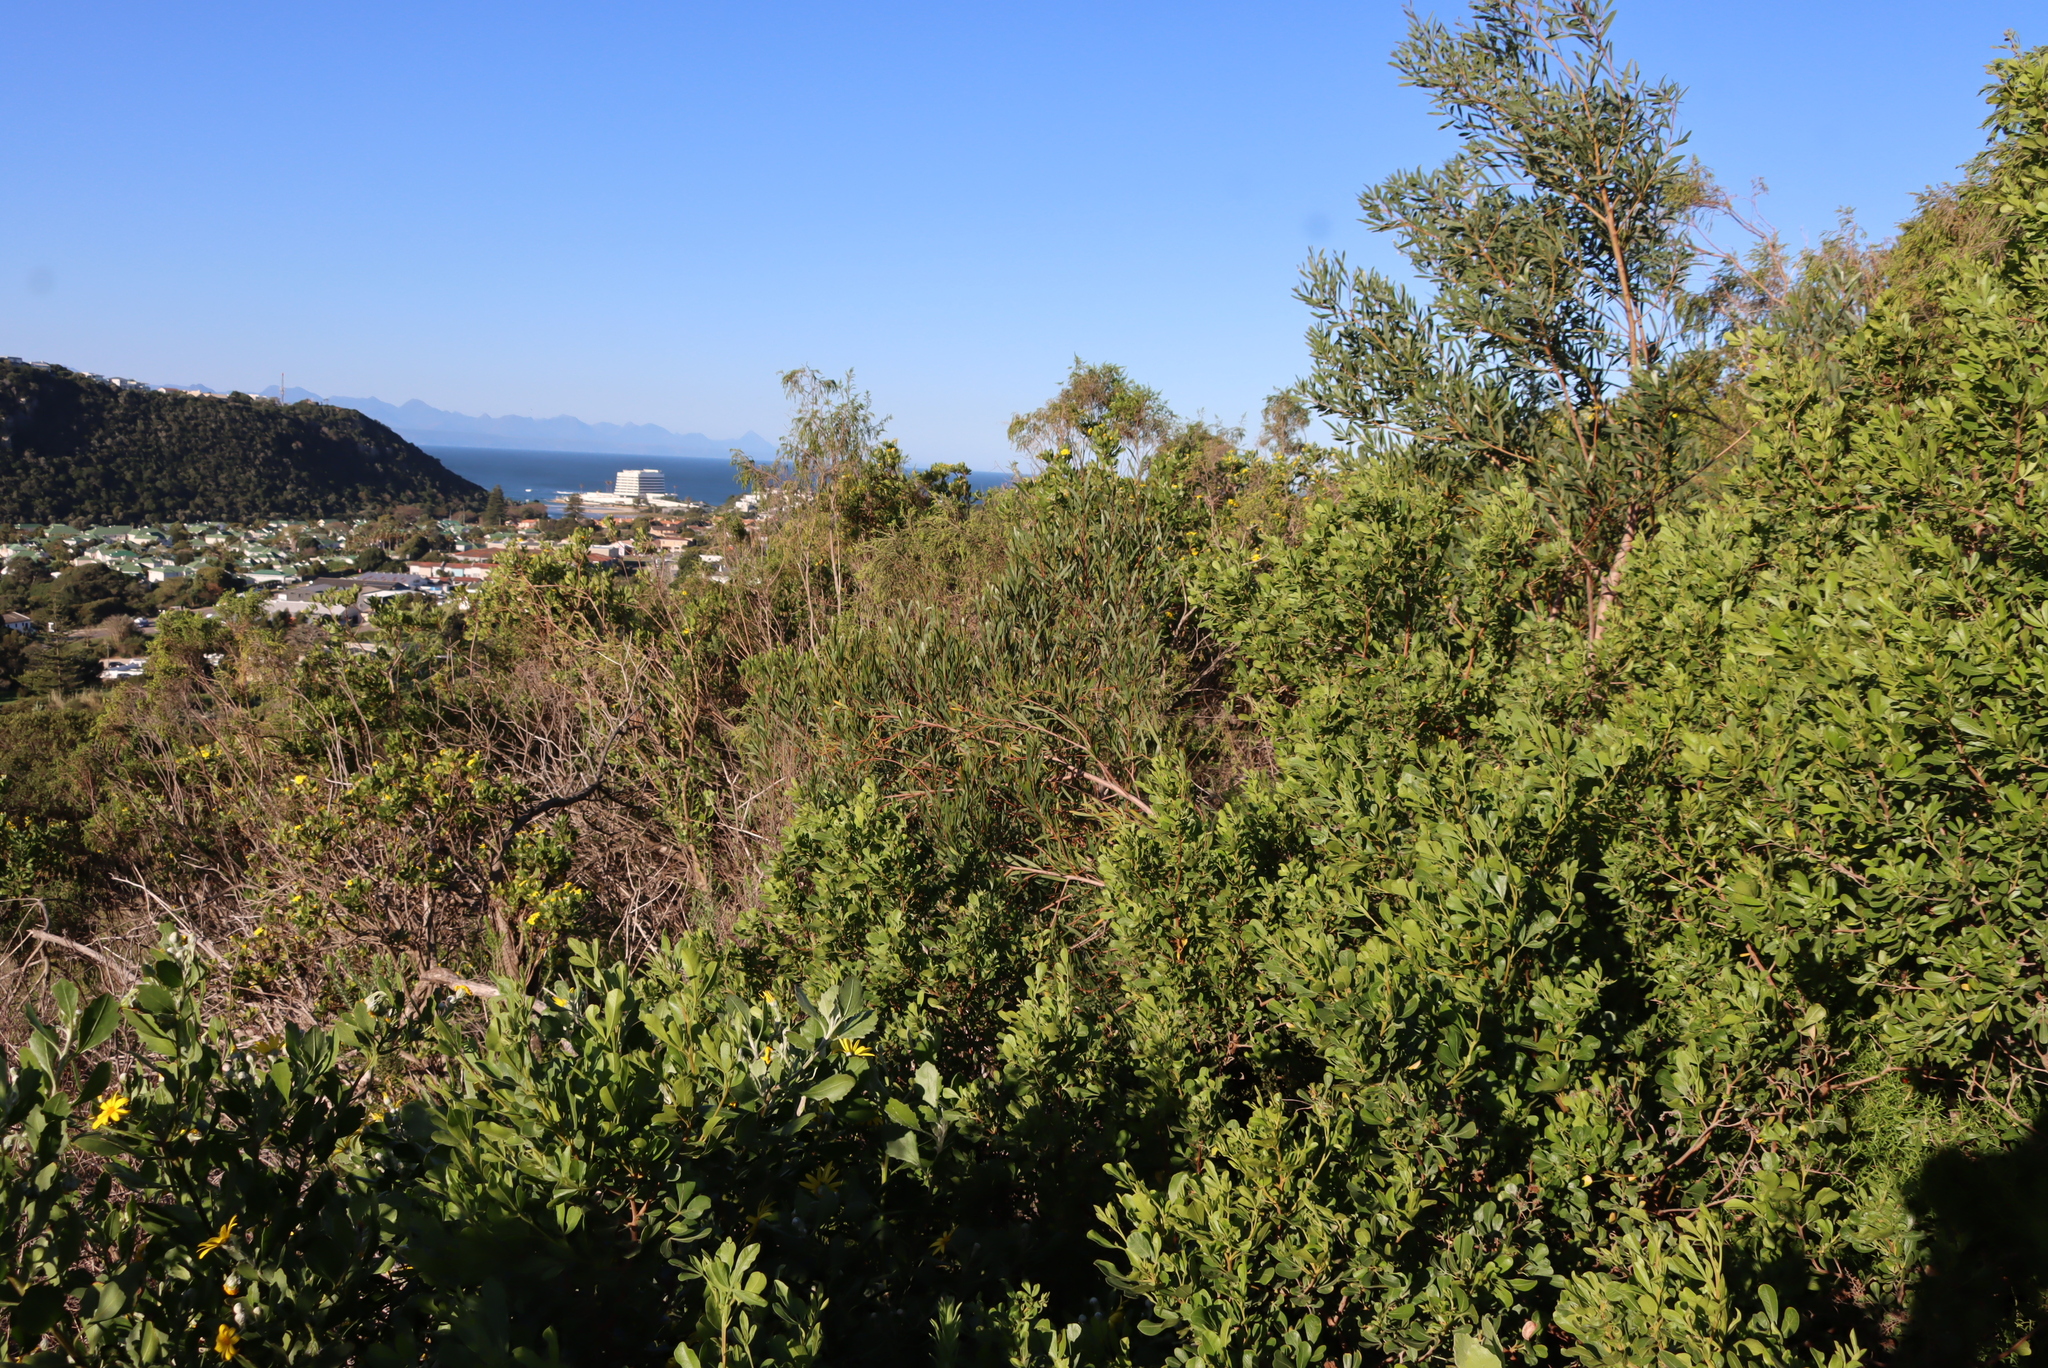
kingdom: Plantae
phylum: Tracheophyta
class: Magnoliopsida
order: Fabales
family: Fabaceae
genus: Acacia
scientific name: Acacia cyclops
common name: Coastal wattle
